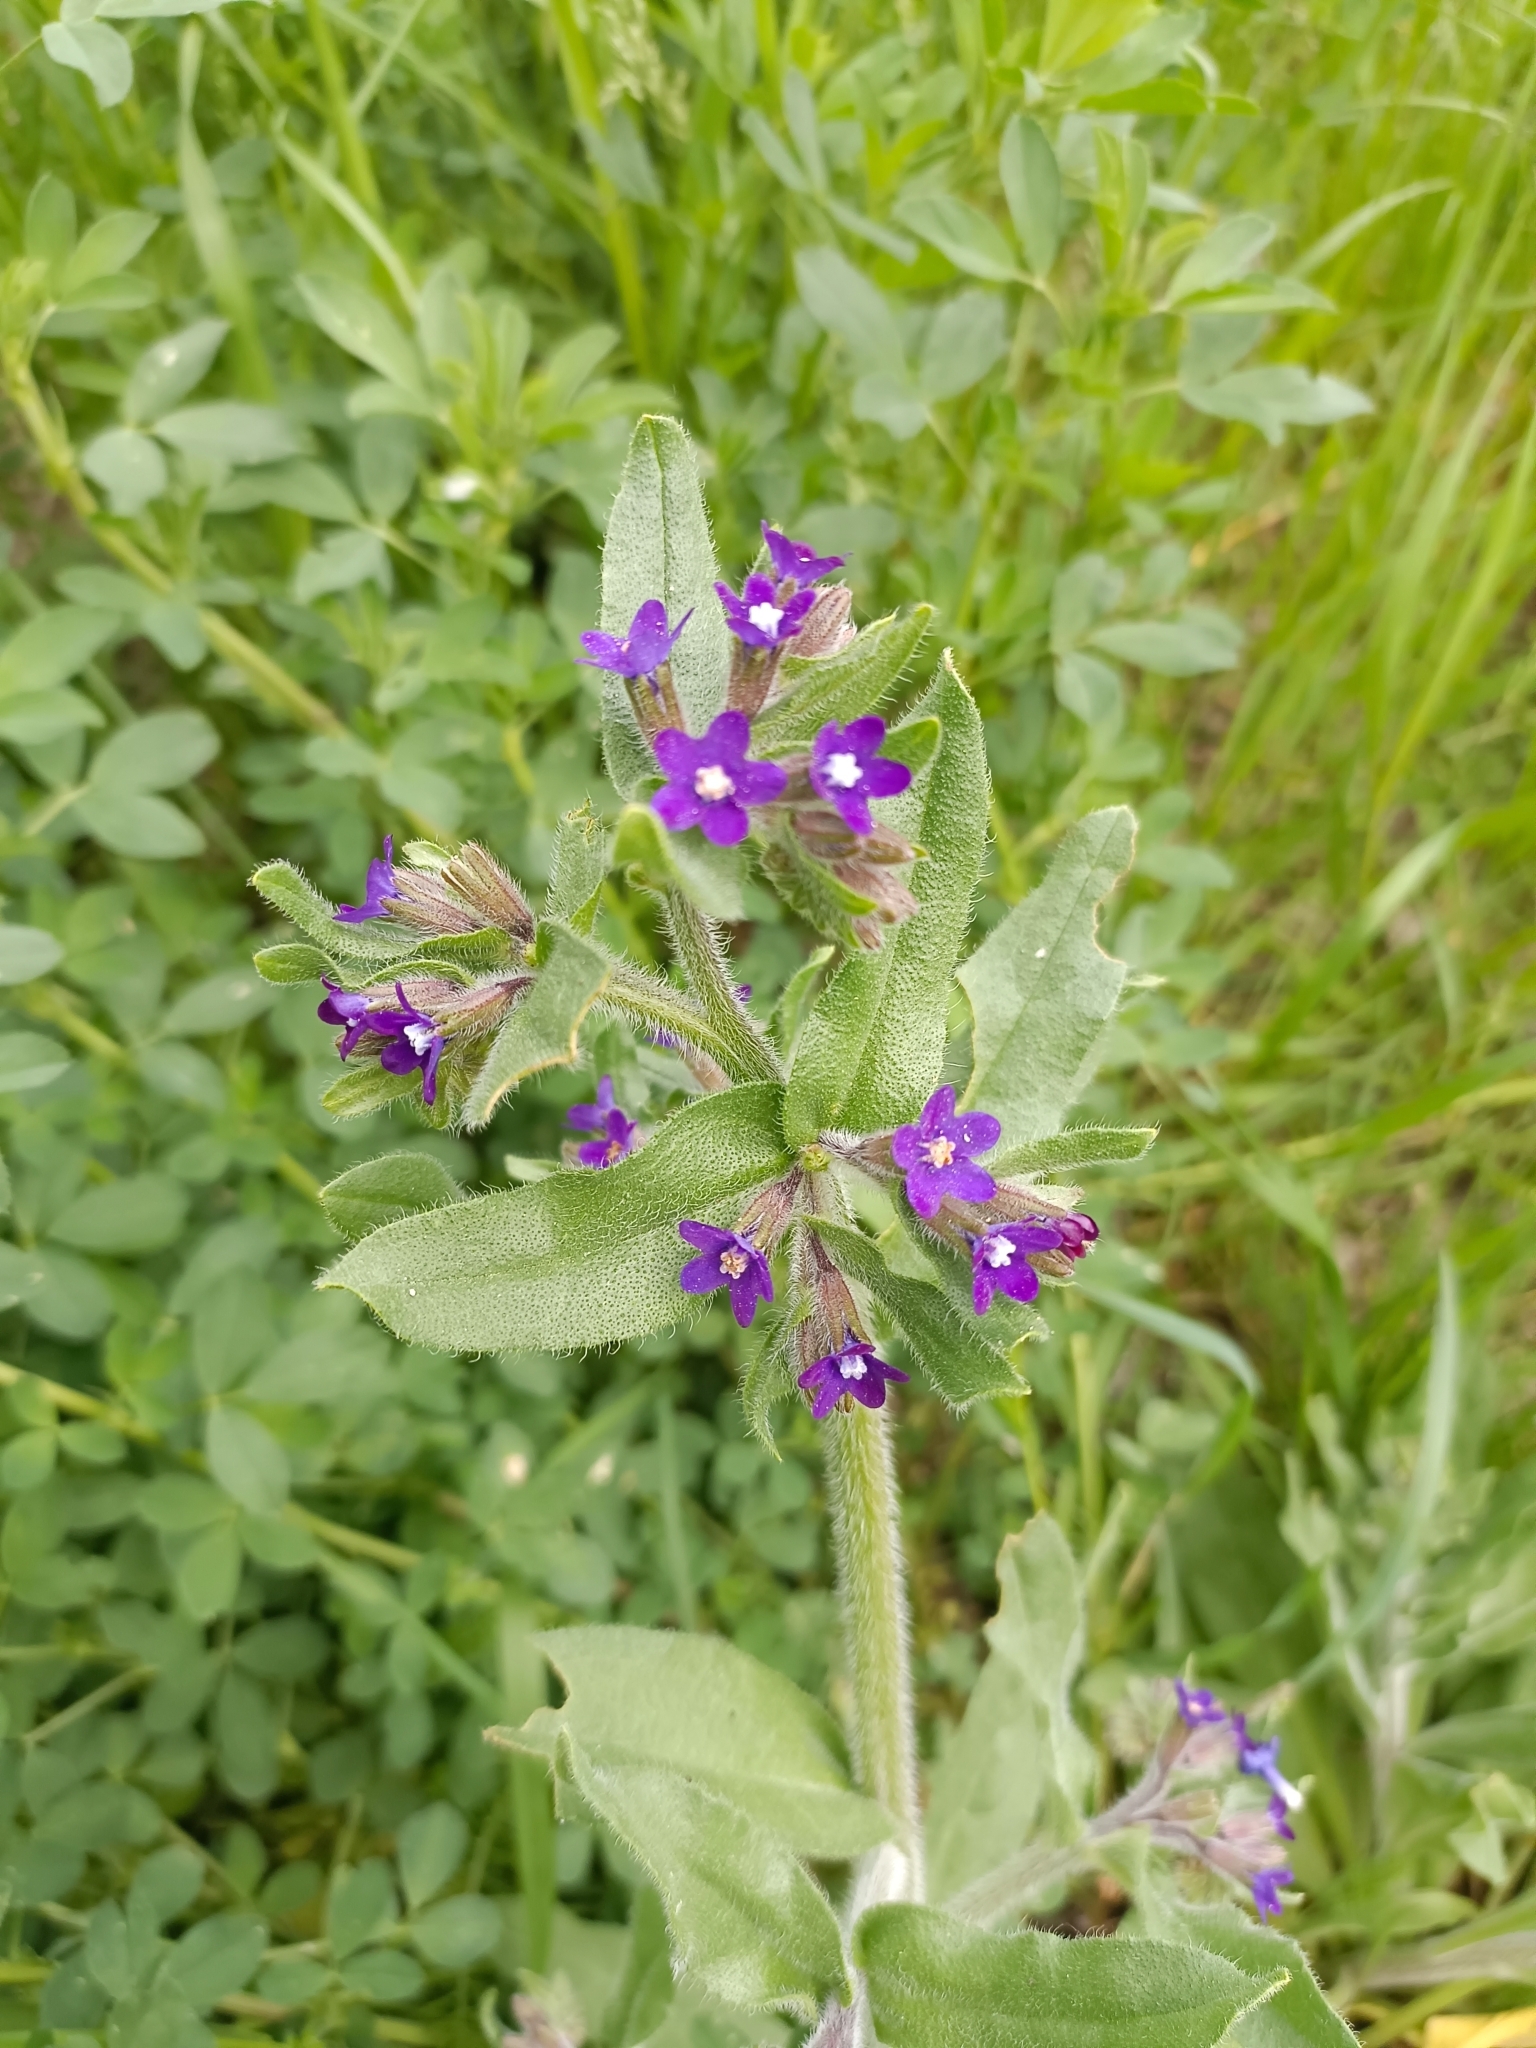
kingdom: Plantae
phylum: Tracheophyta
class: Magnoliopsida
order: Boraginales
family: Boraginaceae
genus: Anchusa
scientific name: Anchusa officinalis
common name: Alkanet
